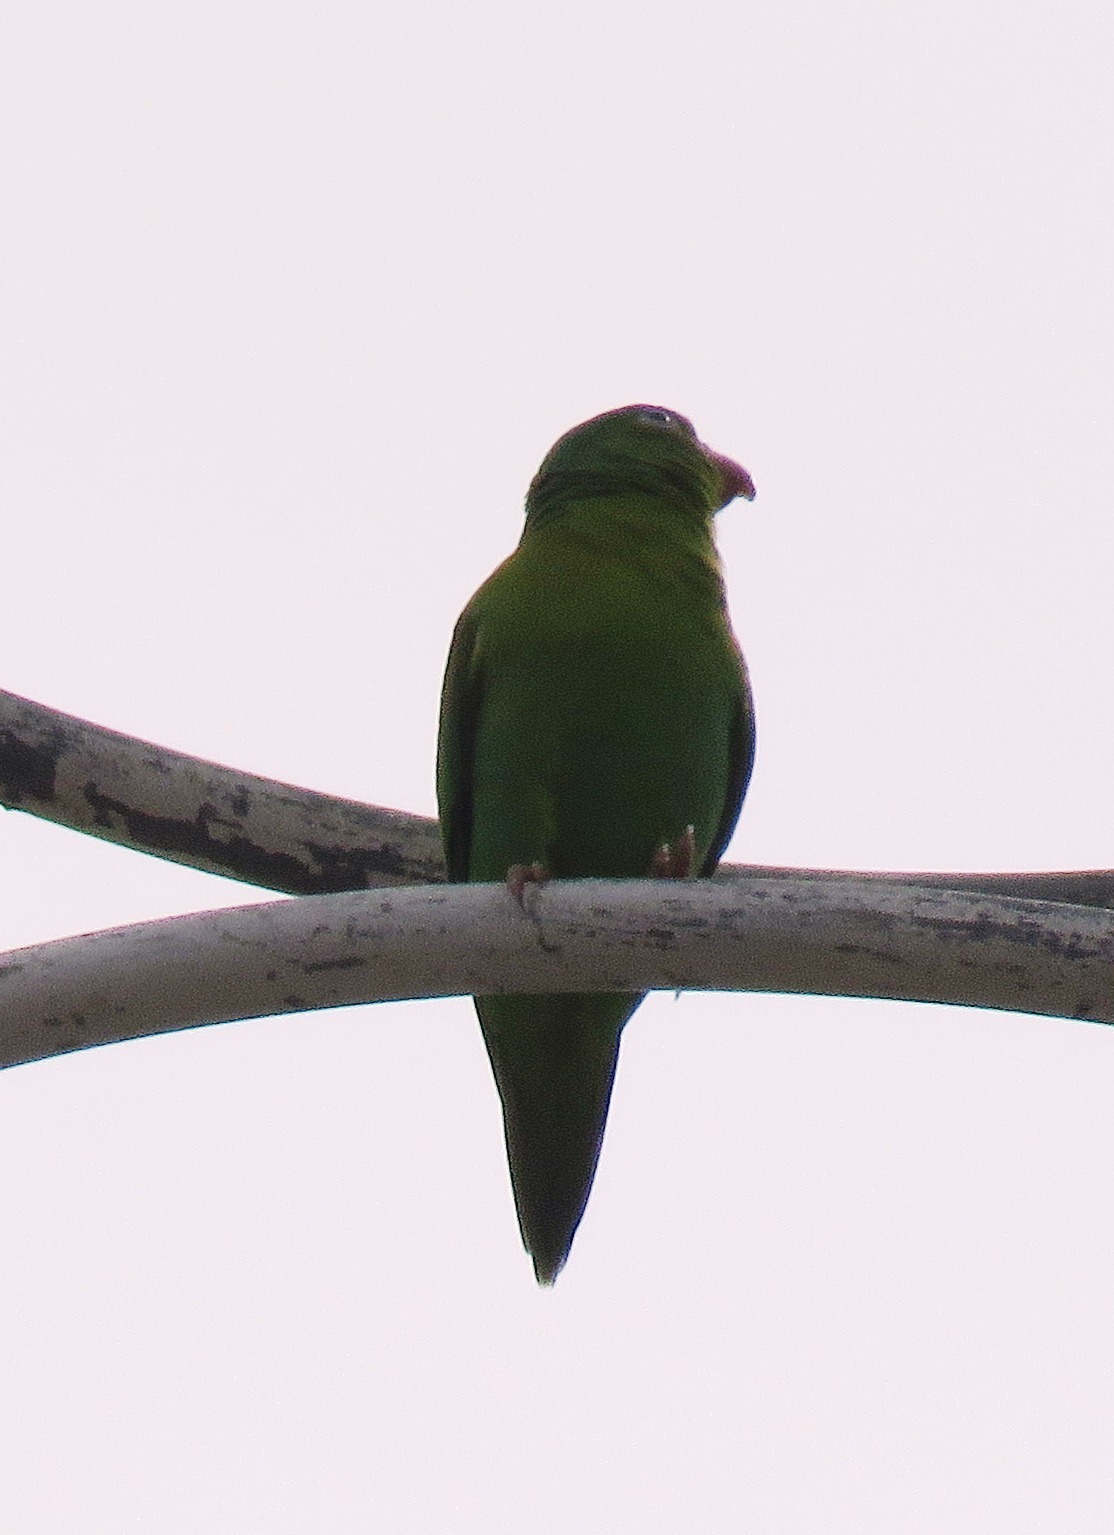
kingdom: Animalia
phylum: Chordata
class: Aves
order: Psittaciformes
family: Psittacidae
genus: Brotogeris
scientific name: Brotogeris jugularis
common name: Orange-chinned parakeet
